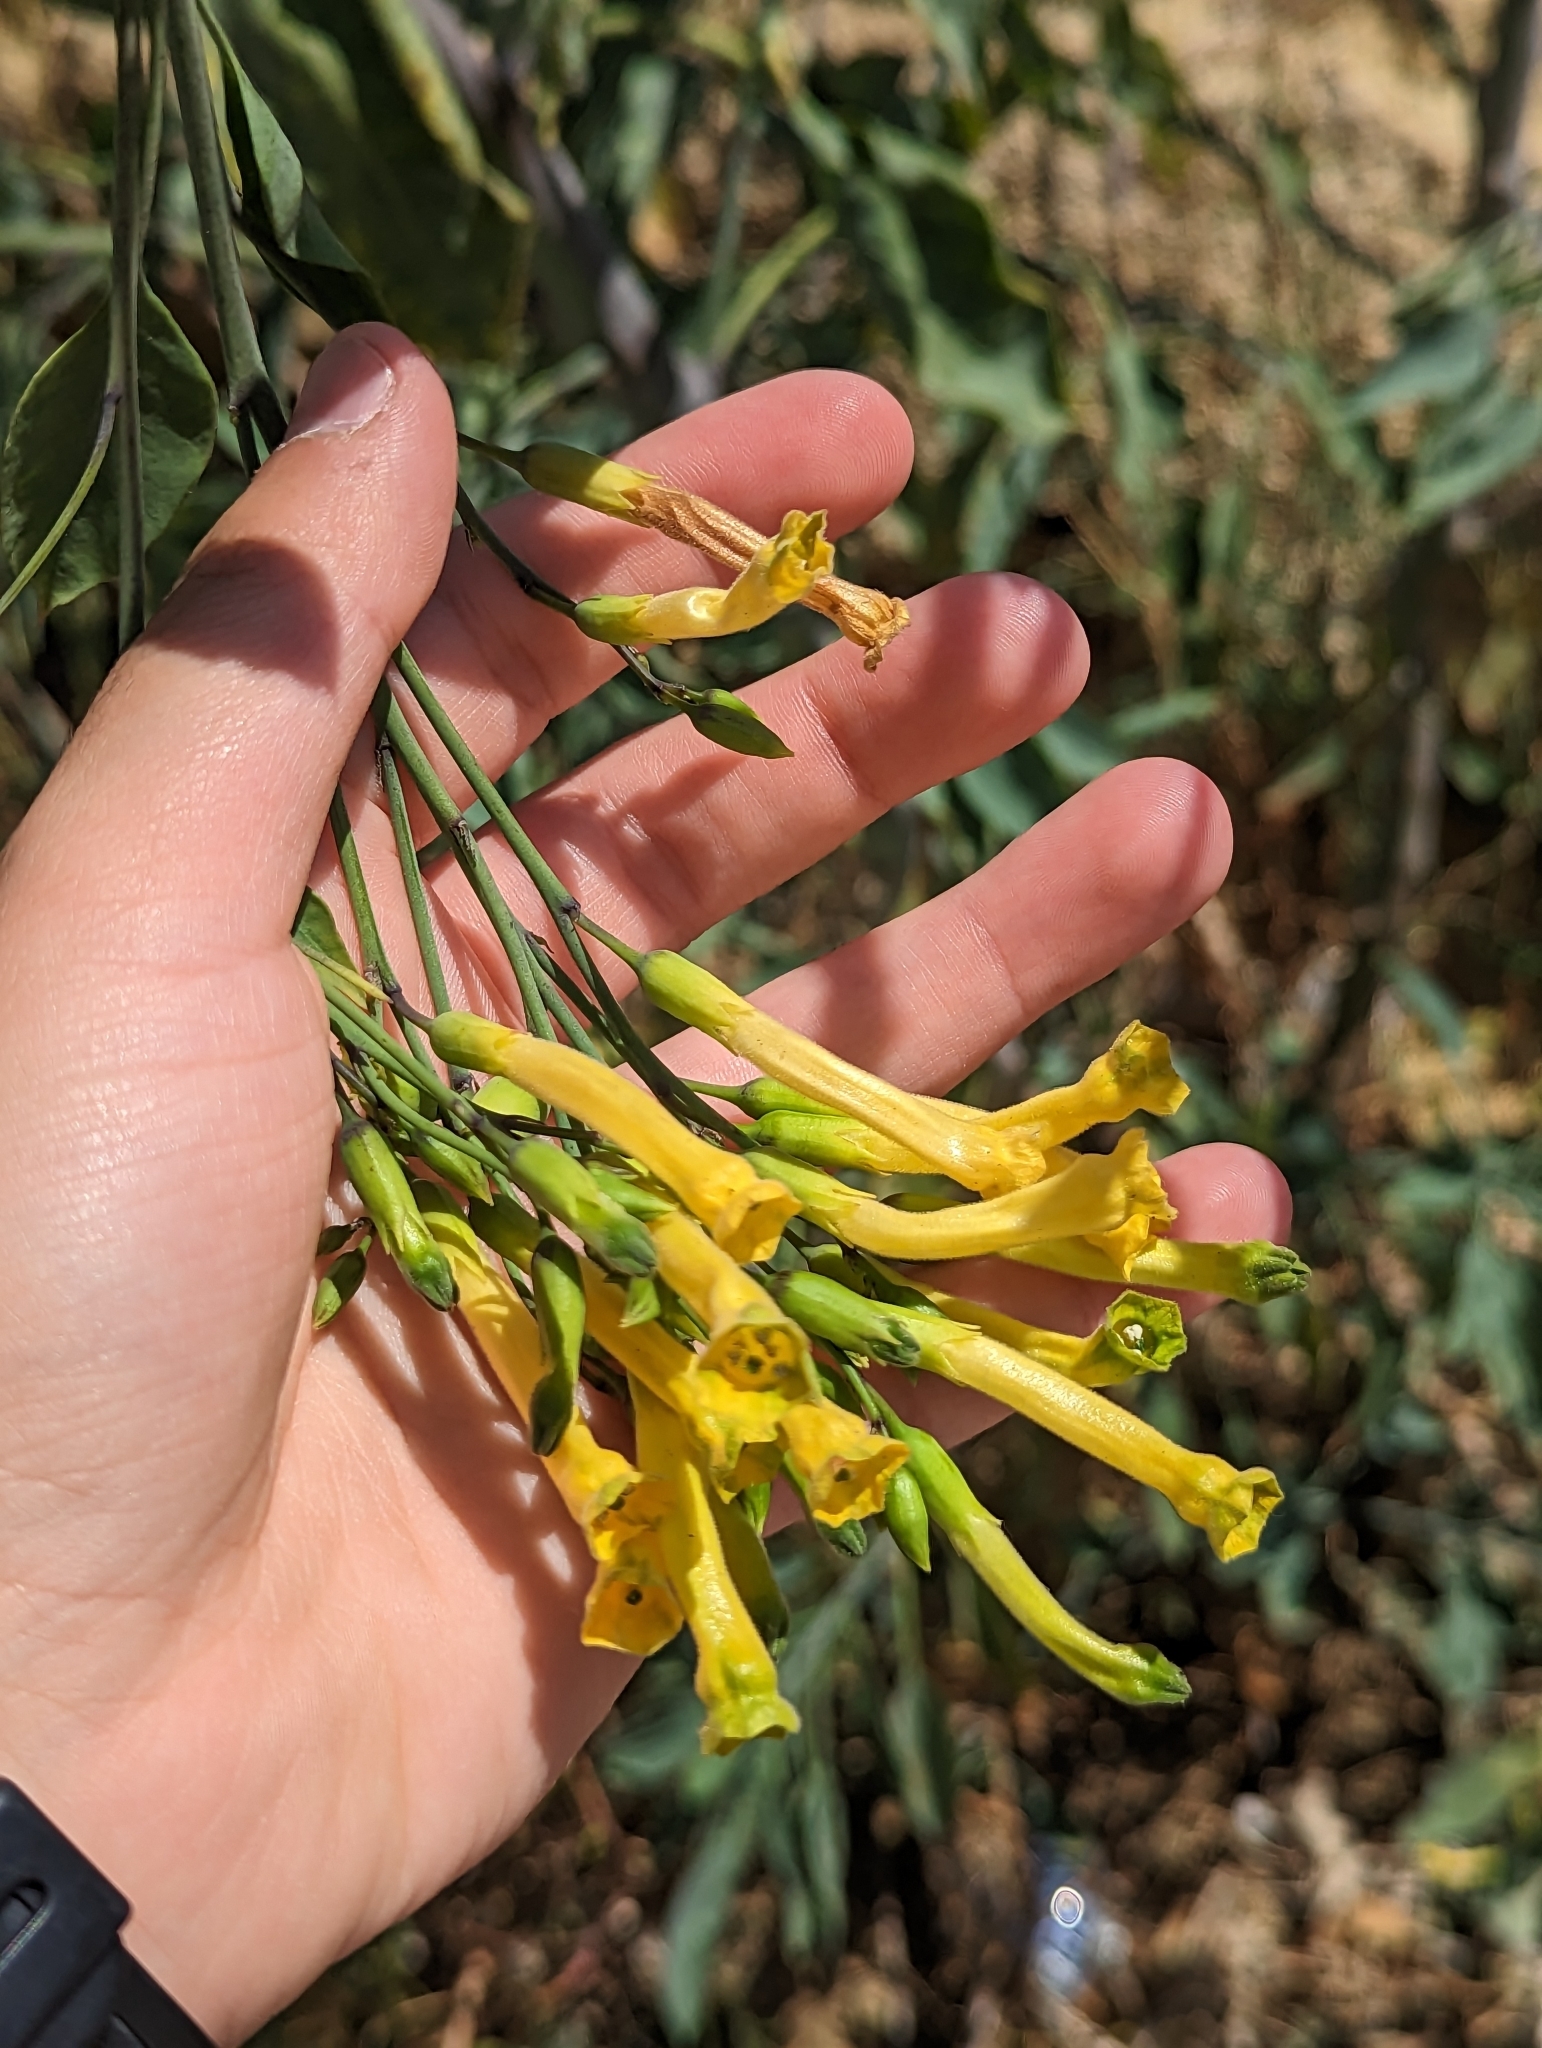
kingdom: Plantae
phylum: Tracheophyta
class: Magnoliopsida
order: Solanales
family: Solanaceae
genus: Nicotiana
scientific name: Nicotiana glauca
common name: Tree tobacco
